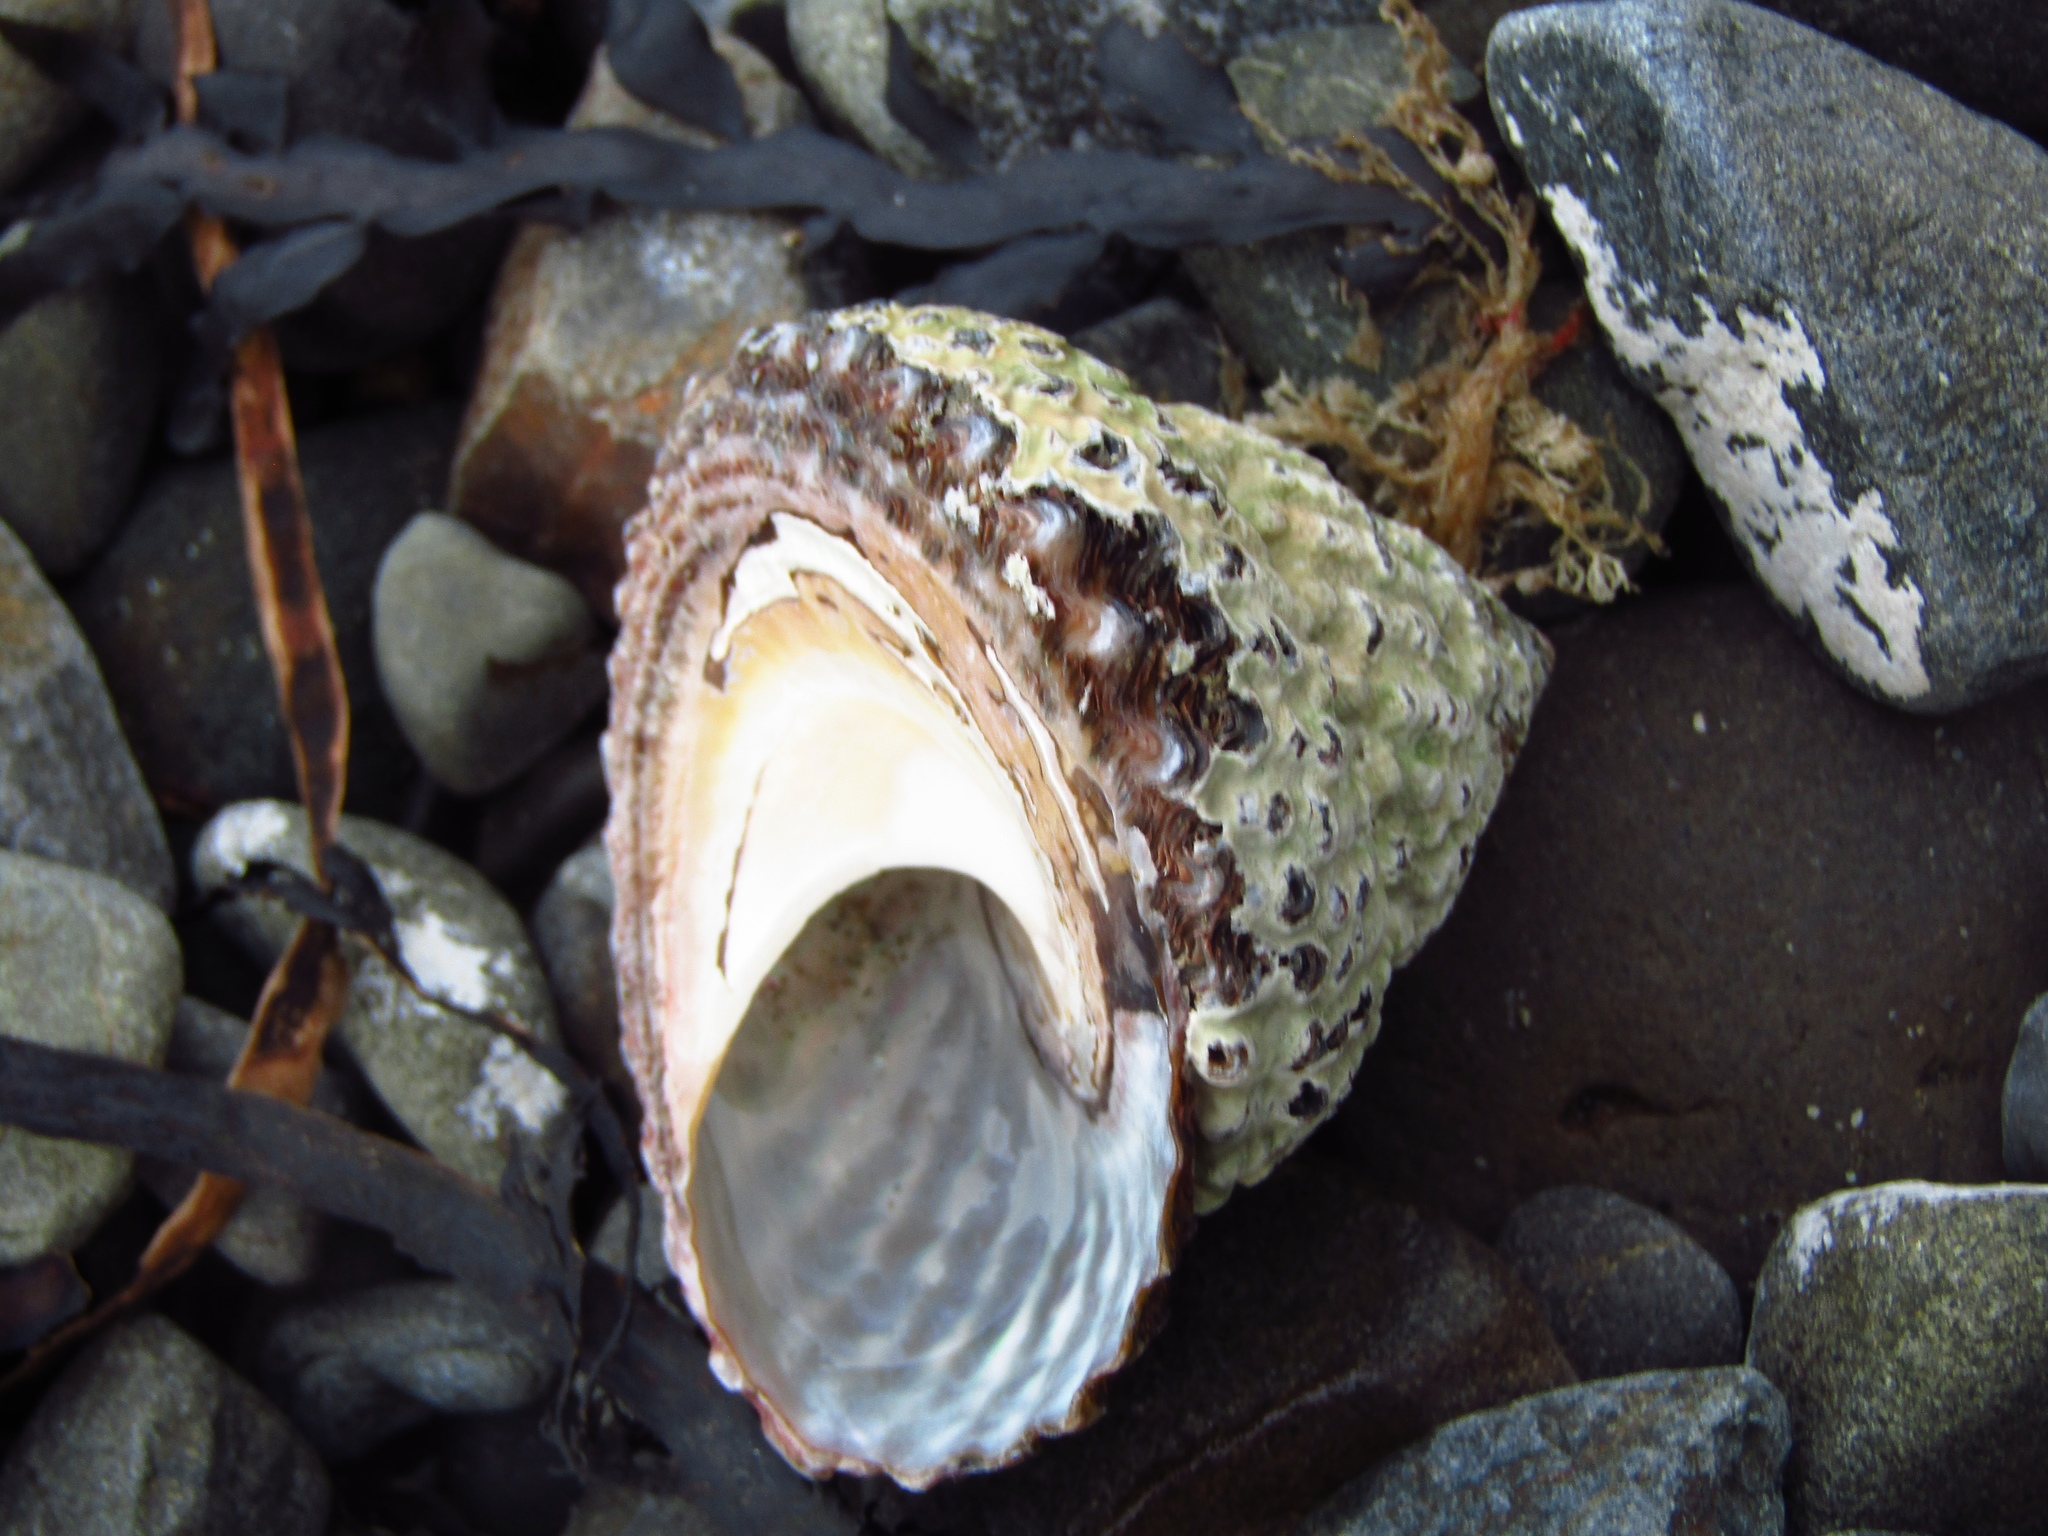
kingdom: Animalia
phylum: Mollusca
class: Gastropoda
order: Trochida
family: Turbinidae
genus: Cookia
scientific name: Cookia sulcata
